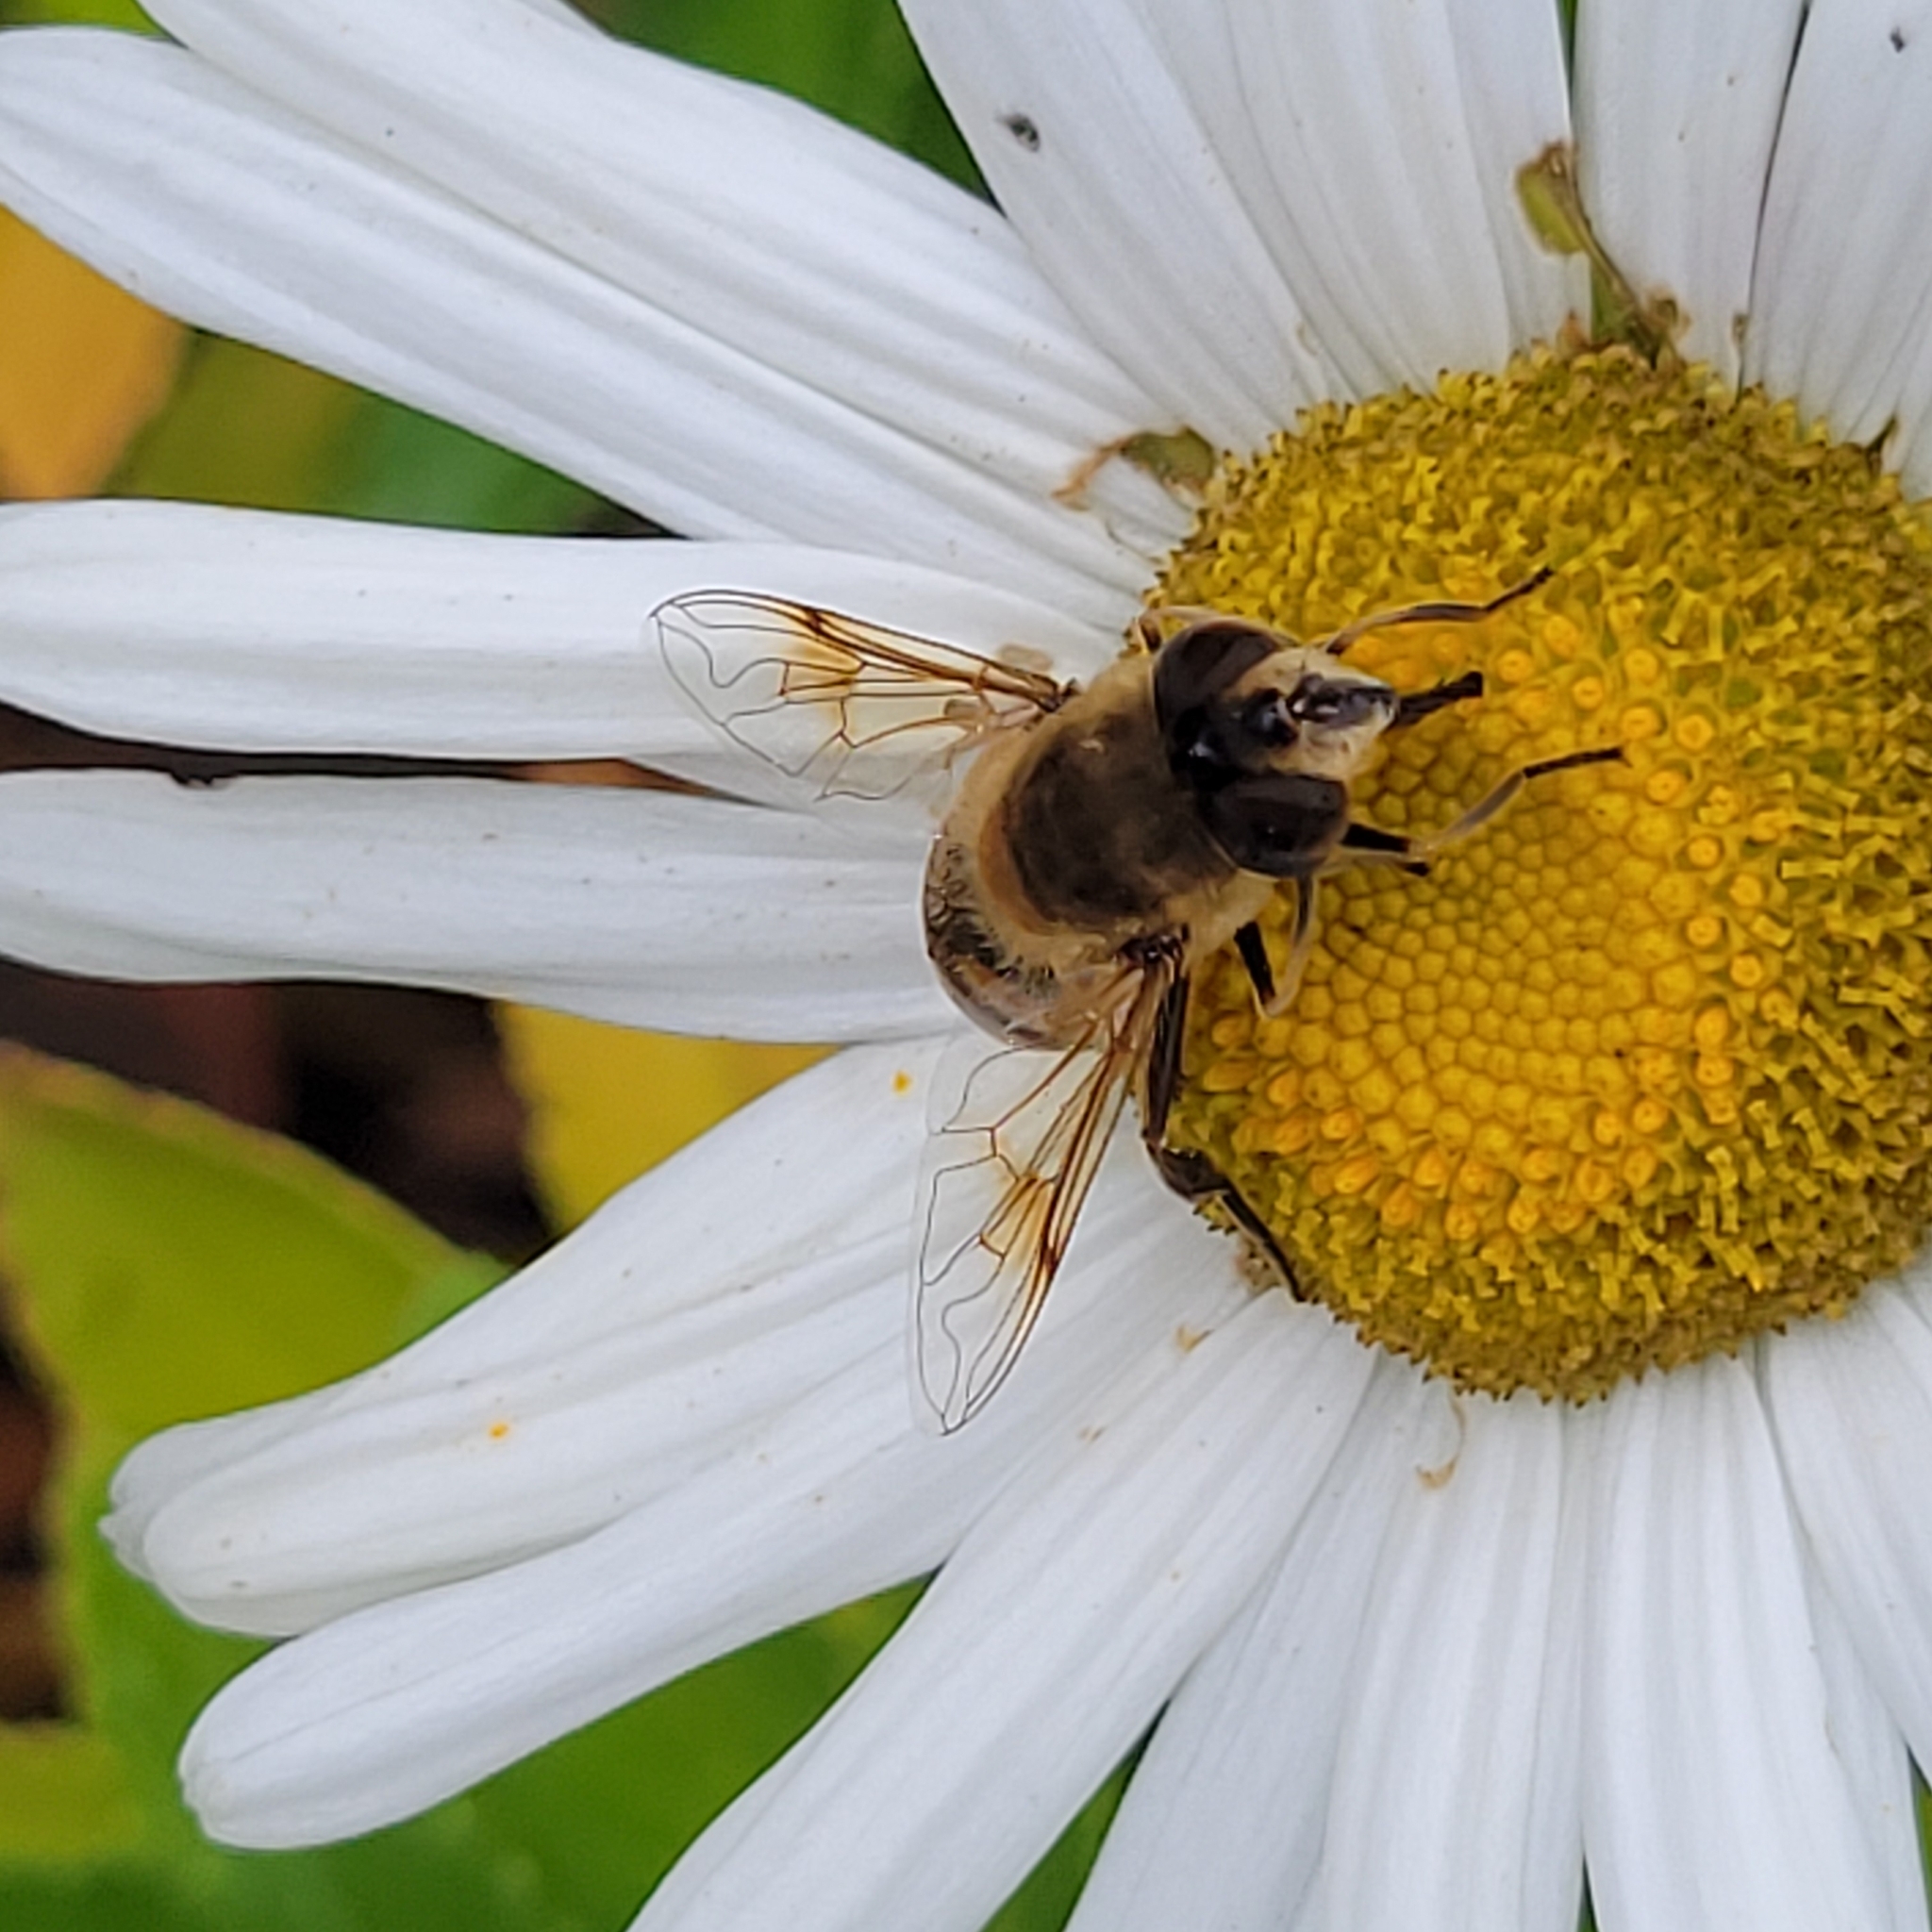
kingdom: Animalia
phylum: Arthropoda
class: Insecta
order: Diptera
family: Syrphidae
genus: Eristalis
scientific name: Eristalis tenax
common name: Drone fly
